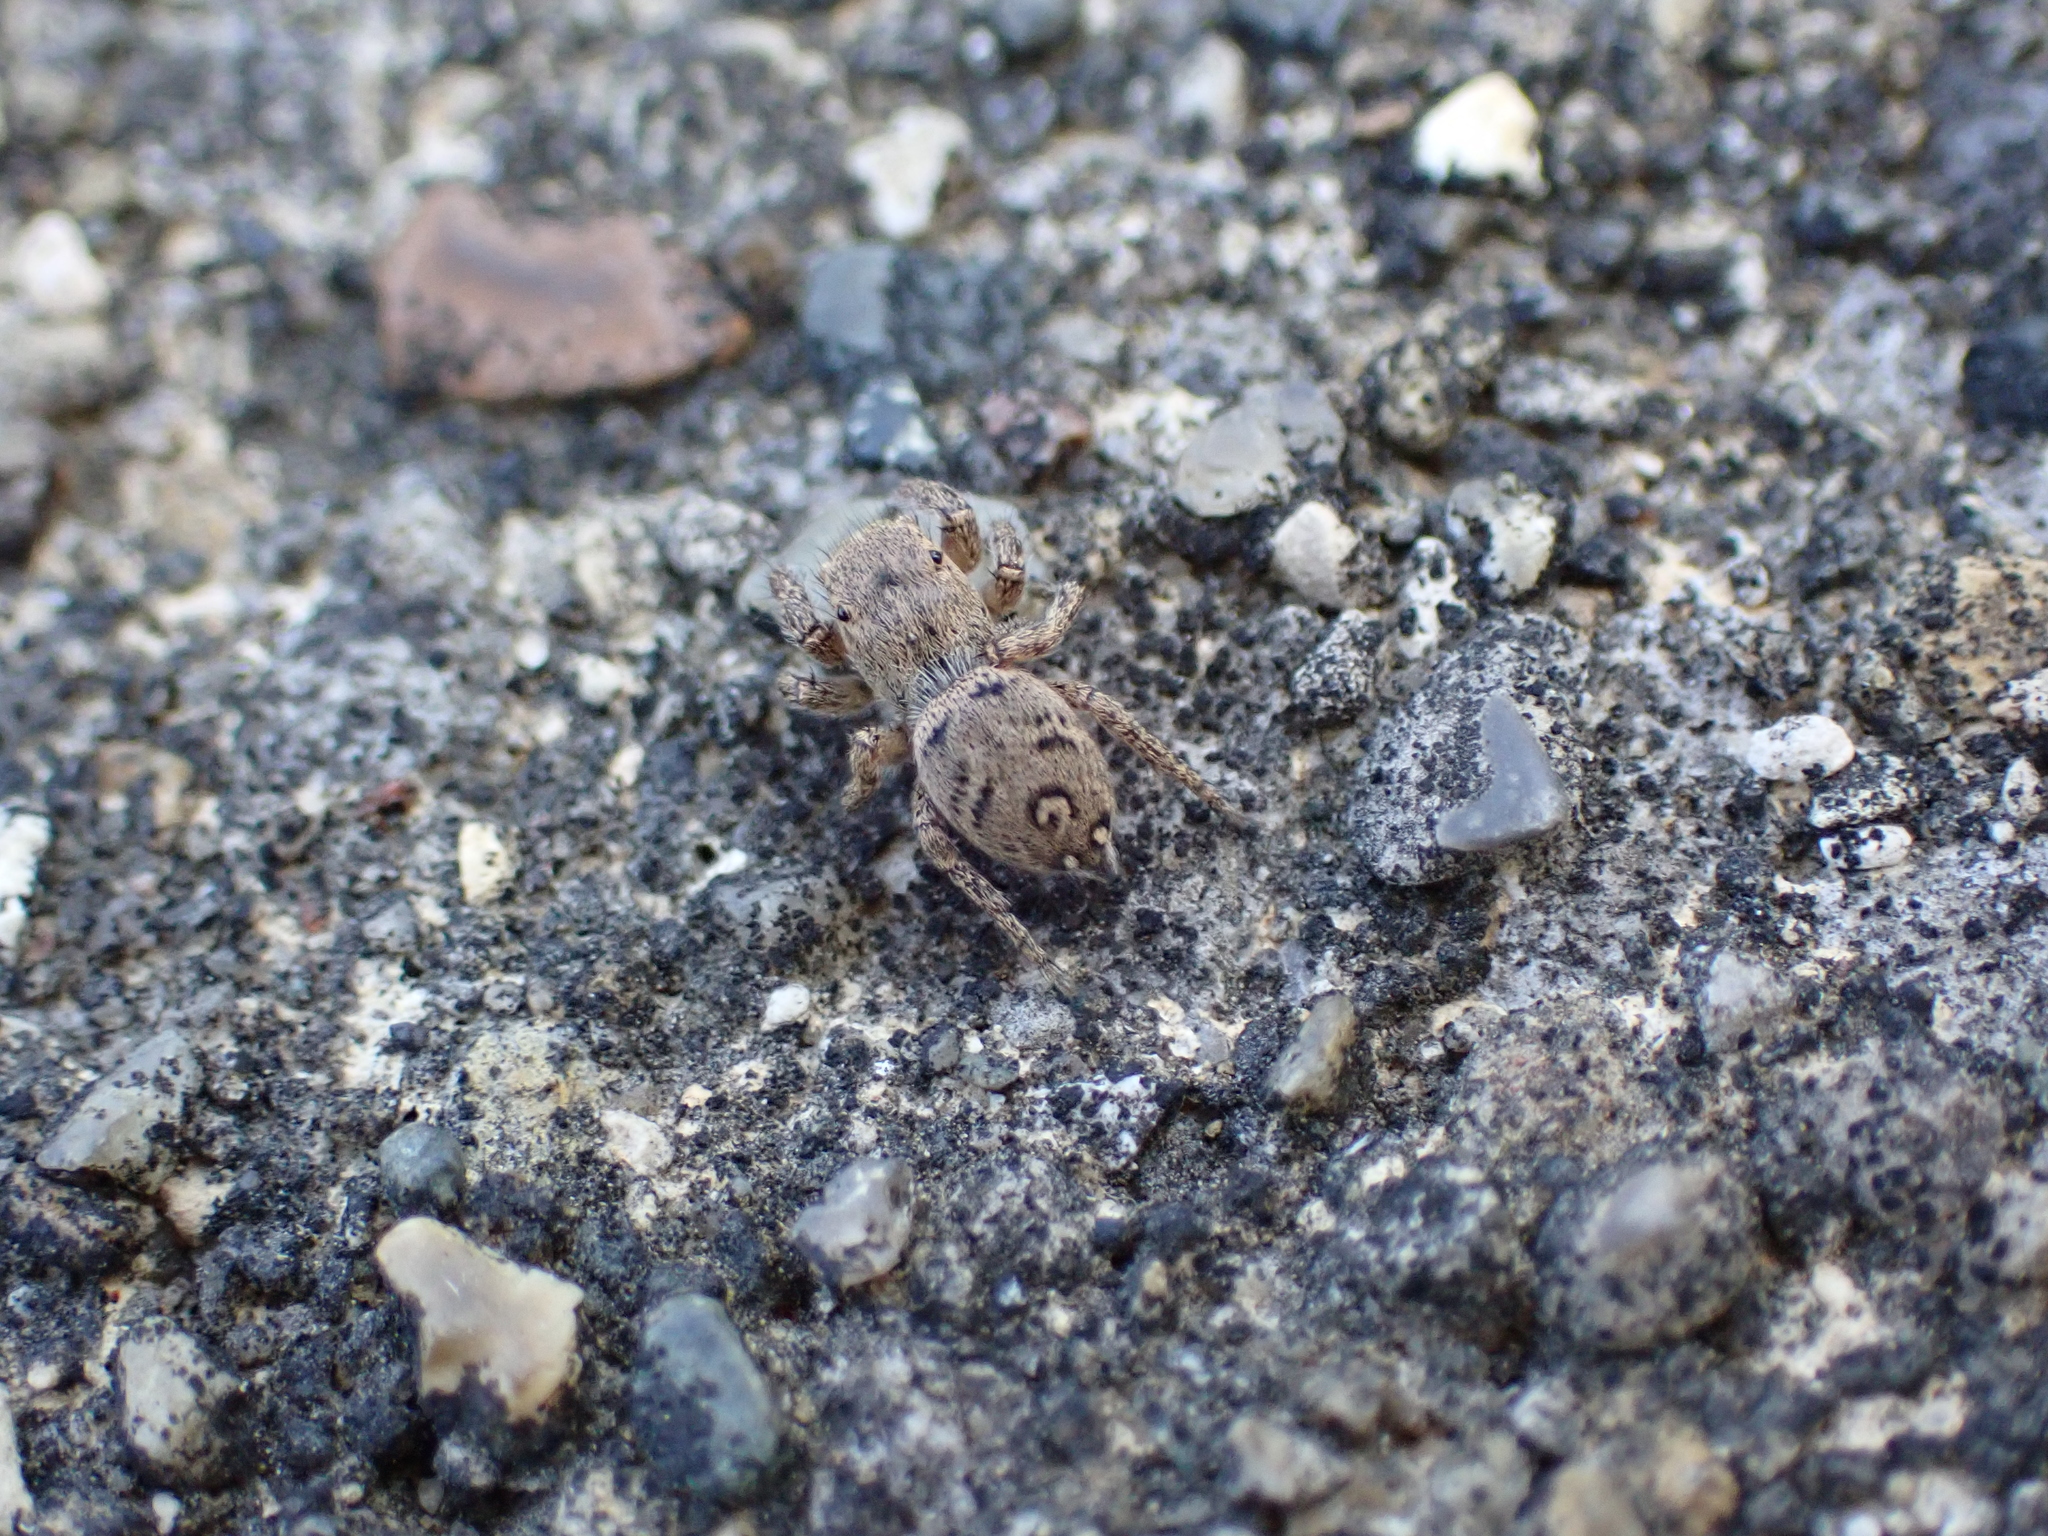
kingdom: Animalia
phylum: Arthropoda
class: Arachnida
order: Araneae
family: Salticidae
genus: Habronattus
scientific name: Habronattus coecatus
